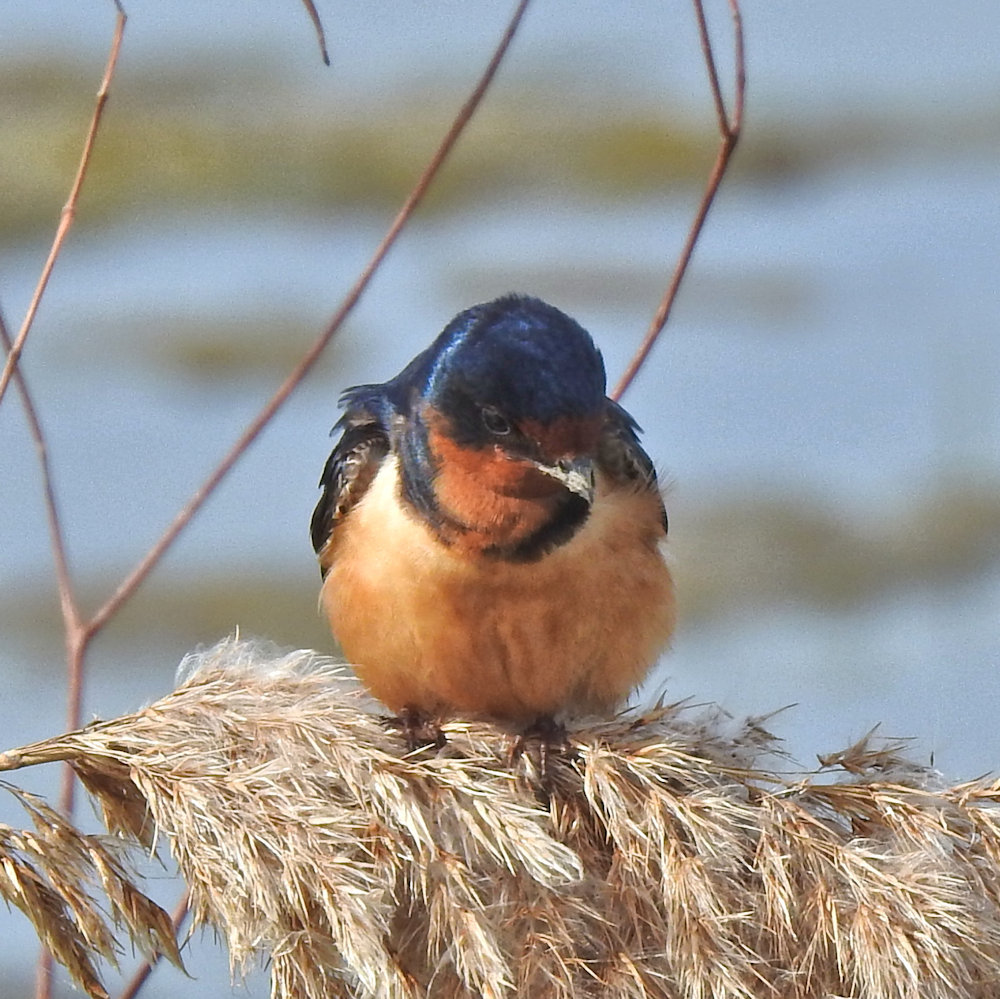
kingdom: Animalia
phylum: Chordata
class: Aves
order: Passeriformes
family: Hirundinidae
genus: Hirundo
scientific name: Hirundo rustica
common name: Barn swallow
